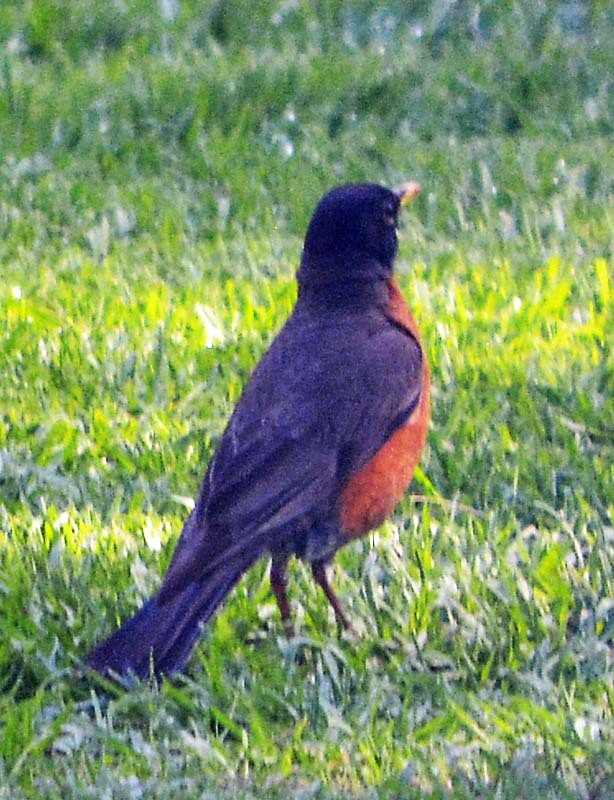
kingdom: Animalia
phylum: Chordata
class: Aves
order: Passeriformes
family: Turdidae
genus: Turdus
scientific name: Turdus migratorius
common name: American robin
